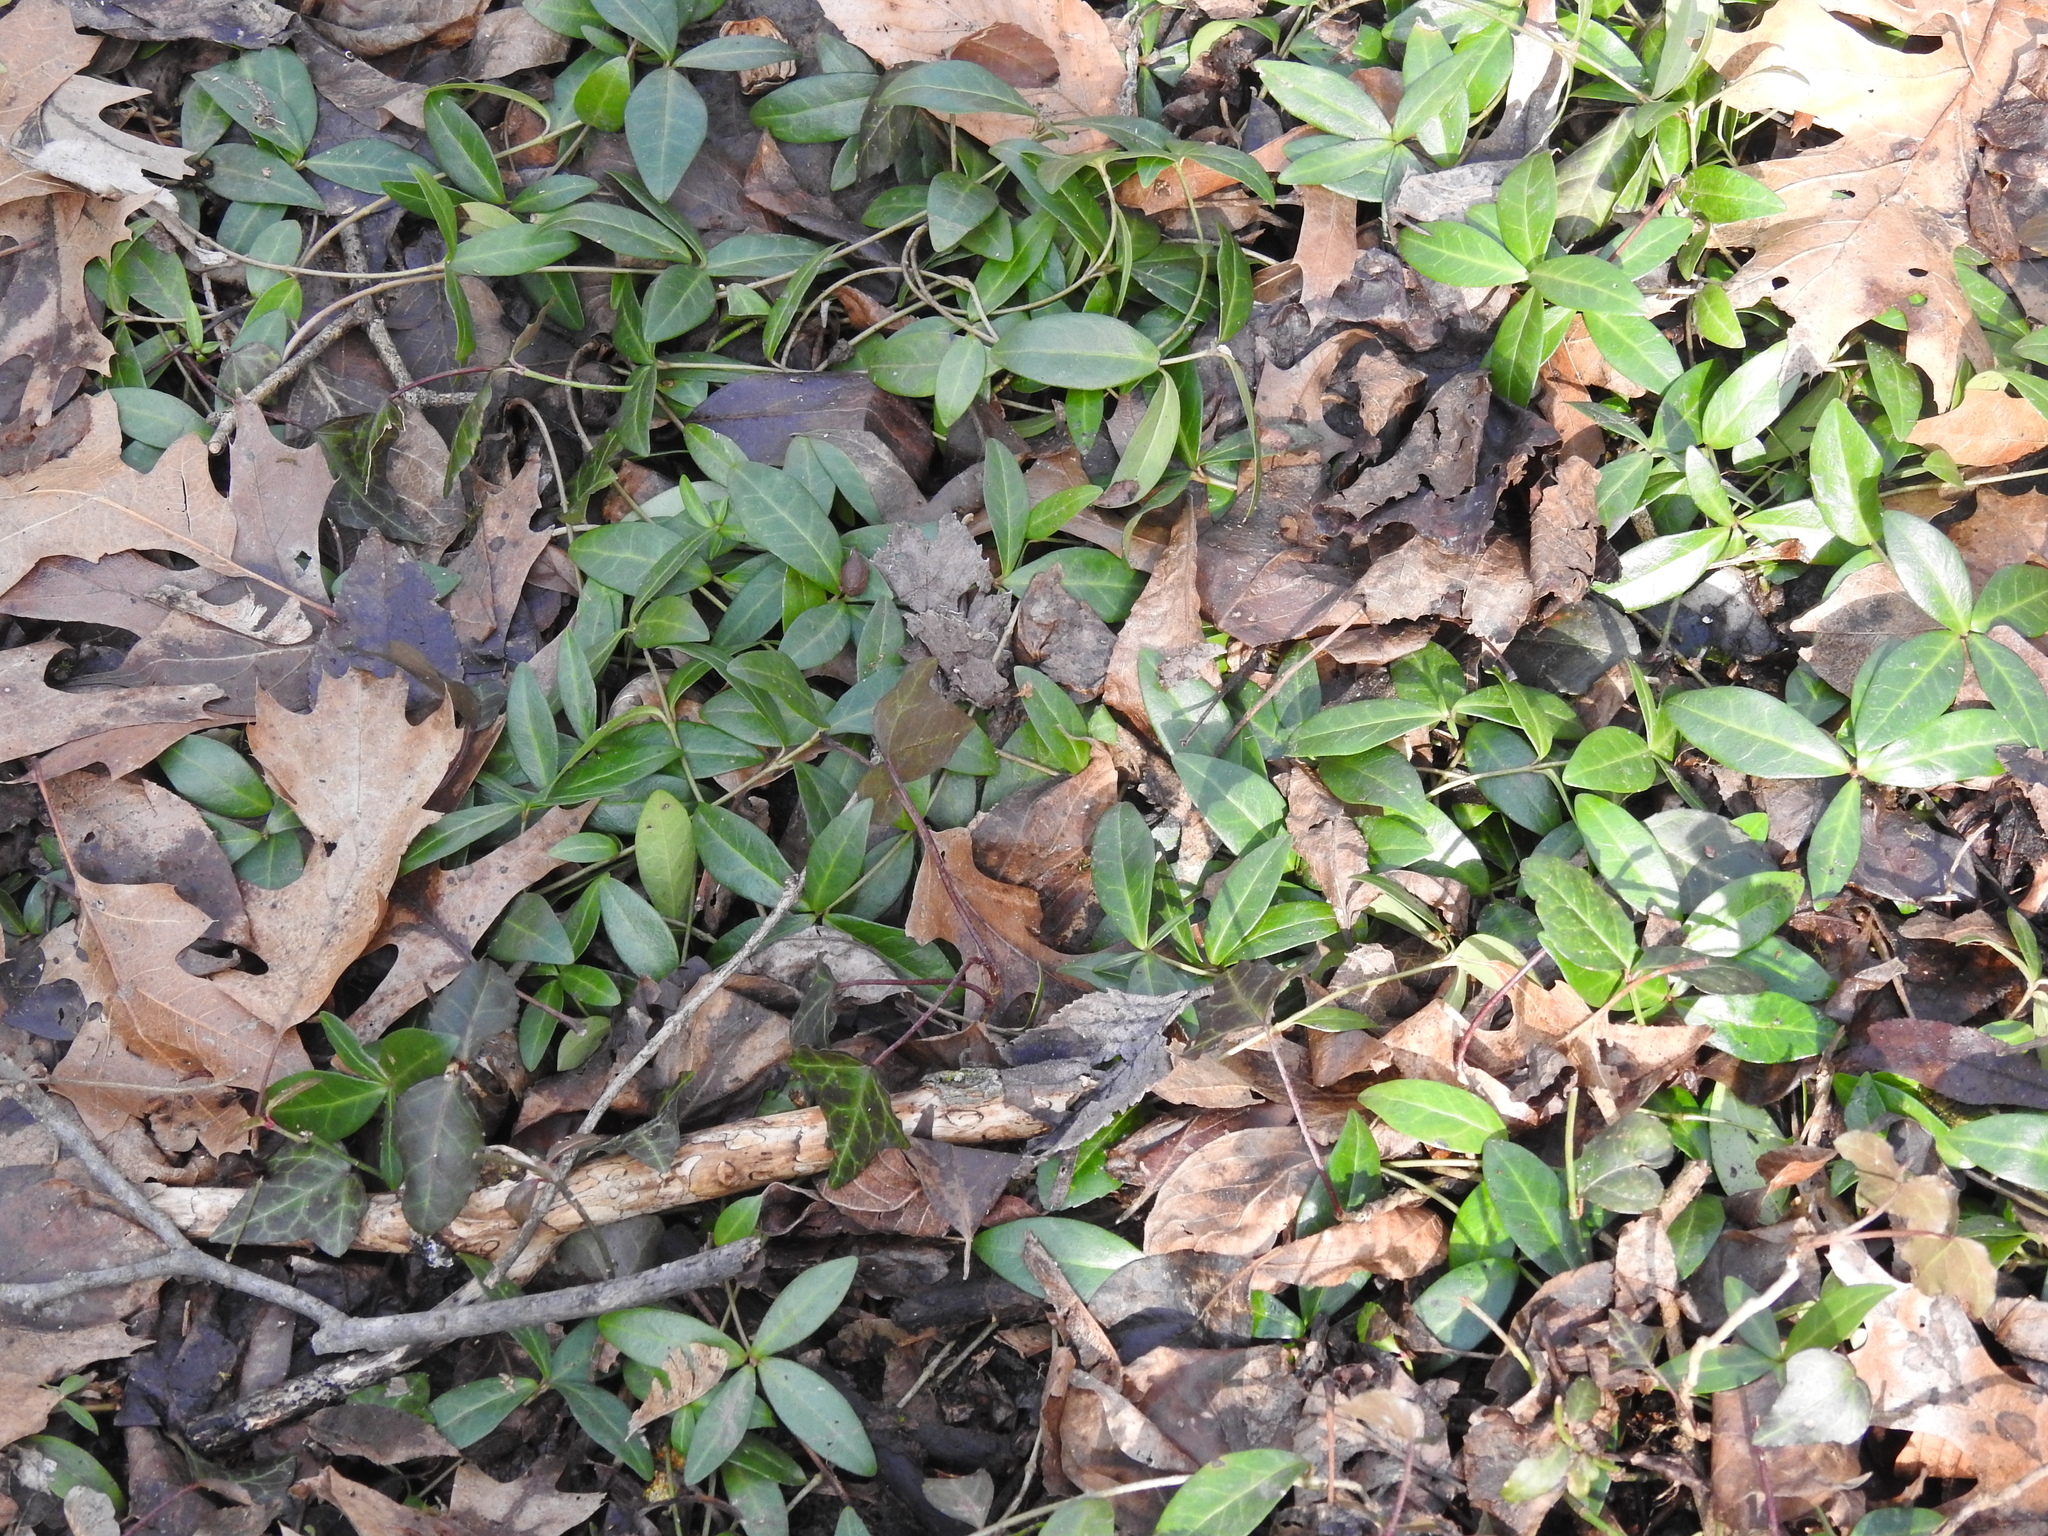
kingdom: Plantae
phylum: Tracheophyta
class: Magnoliopsida
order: Gentianales
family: Apocynaceae
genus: Vinca
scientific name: Vinca minor
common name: Lesser periwinkle
